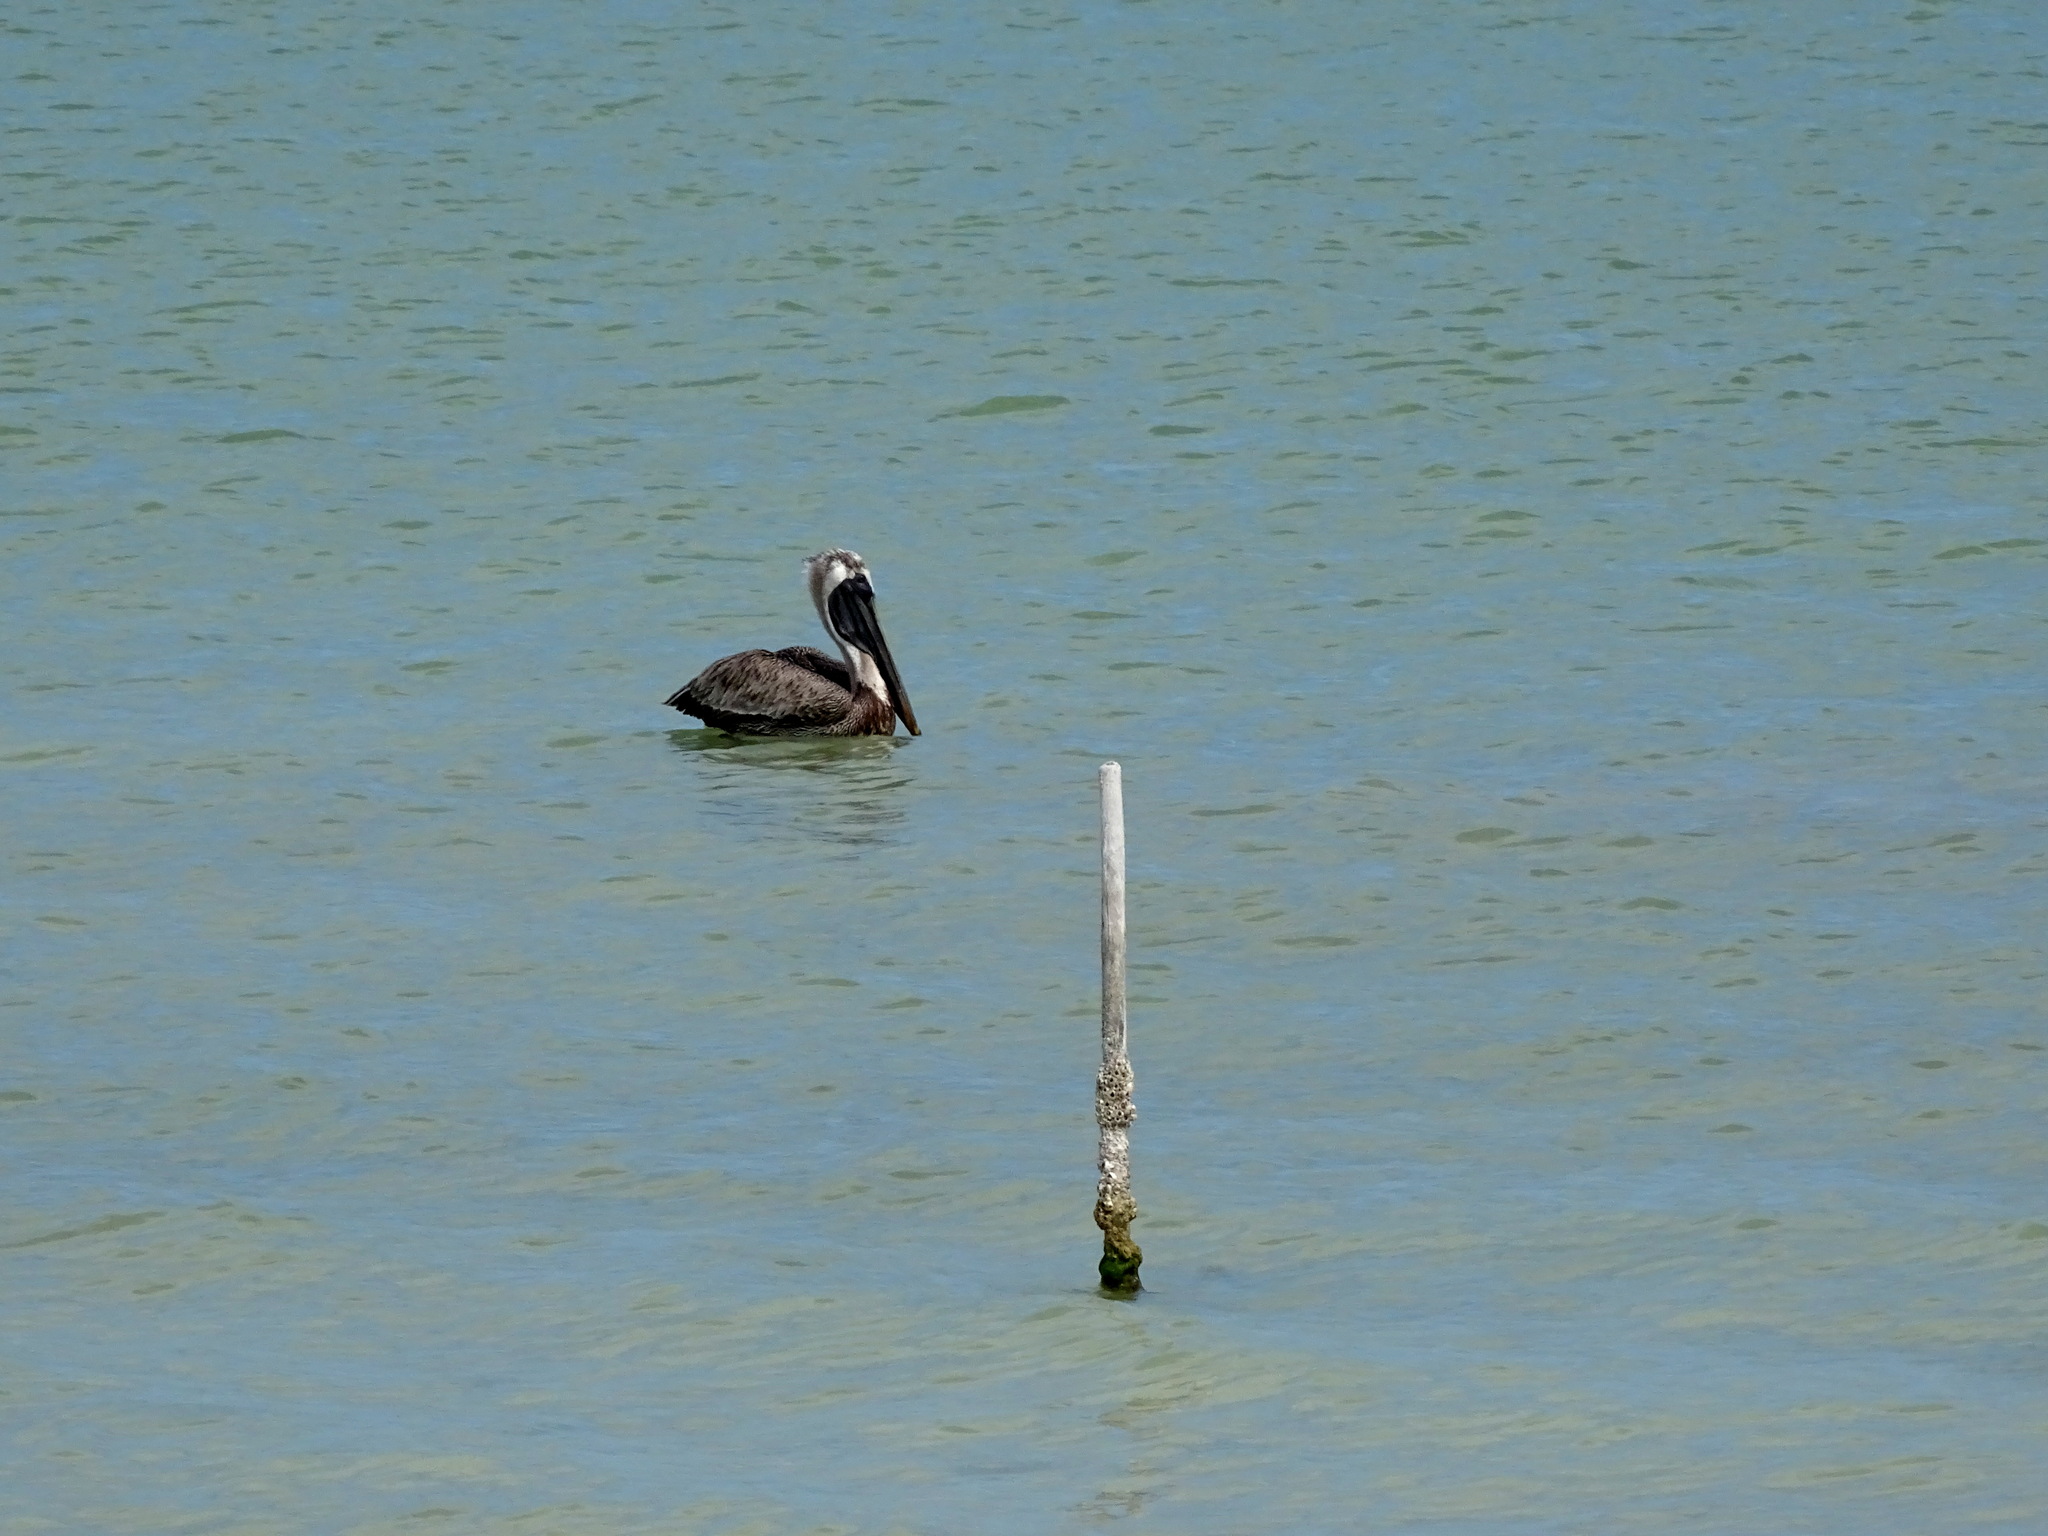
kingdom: Animalia
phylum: Chordata
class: Aves
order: Pelecaniformes
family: Pelecanidae
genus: Pelecanus
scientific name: Pelecanus occidentalis
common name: Brown pelican
